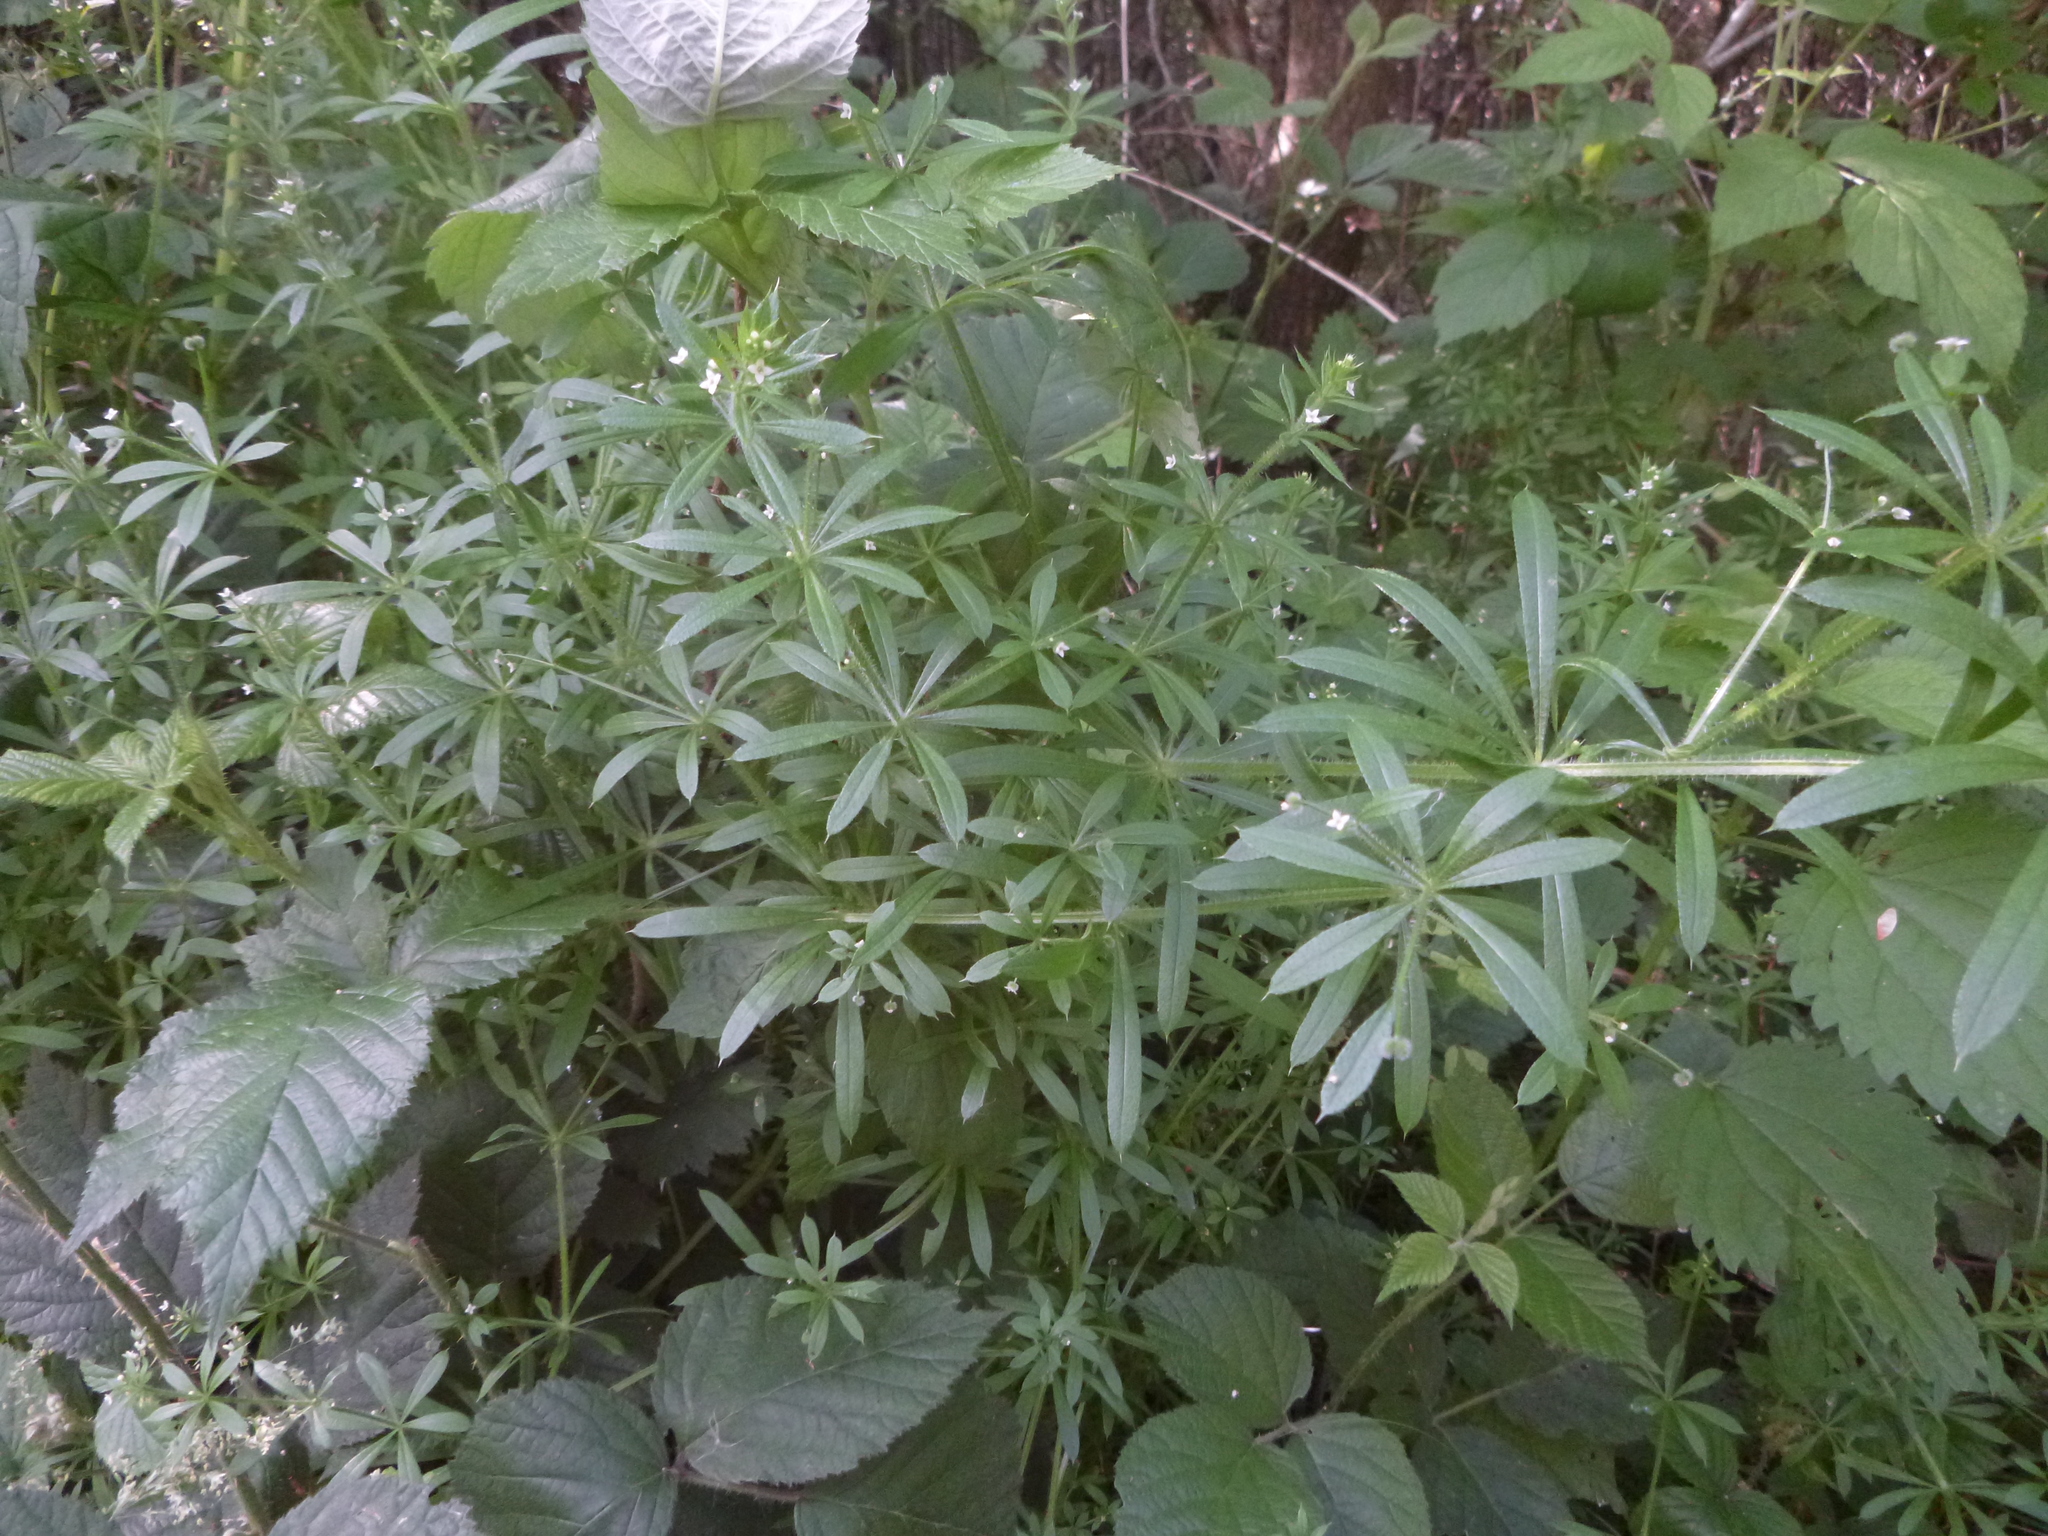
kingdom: Plantae
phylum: Tracheophyta
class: Magnoliopsida
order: Gentianales
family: Rubiaceae
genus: Galium
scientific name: Galium aparine
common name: Cleavers
